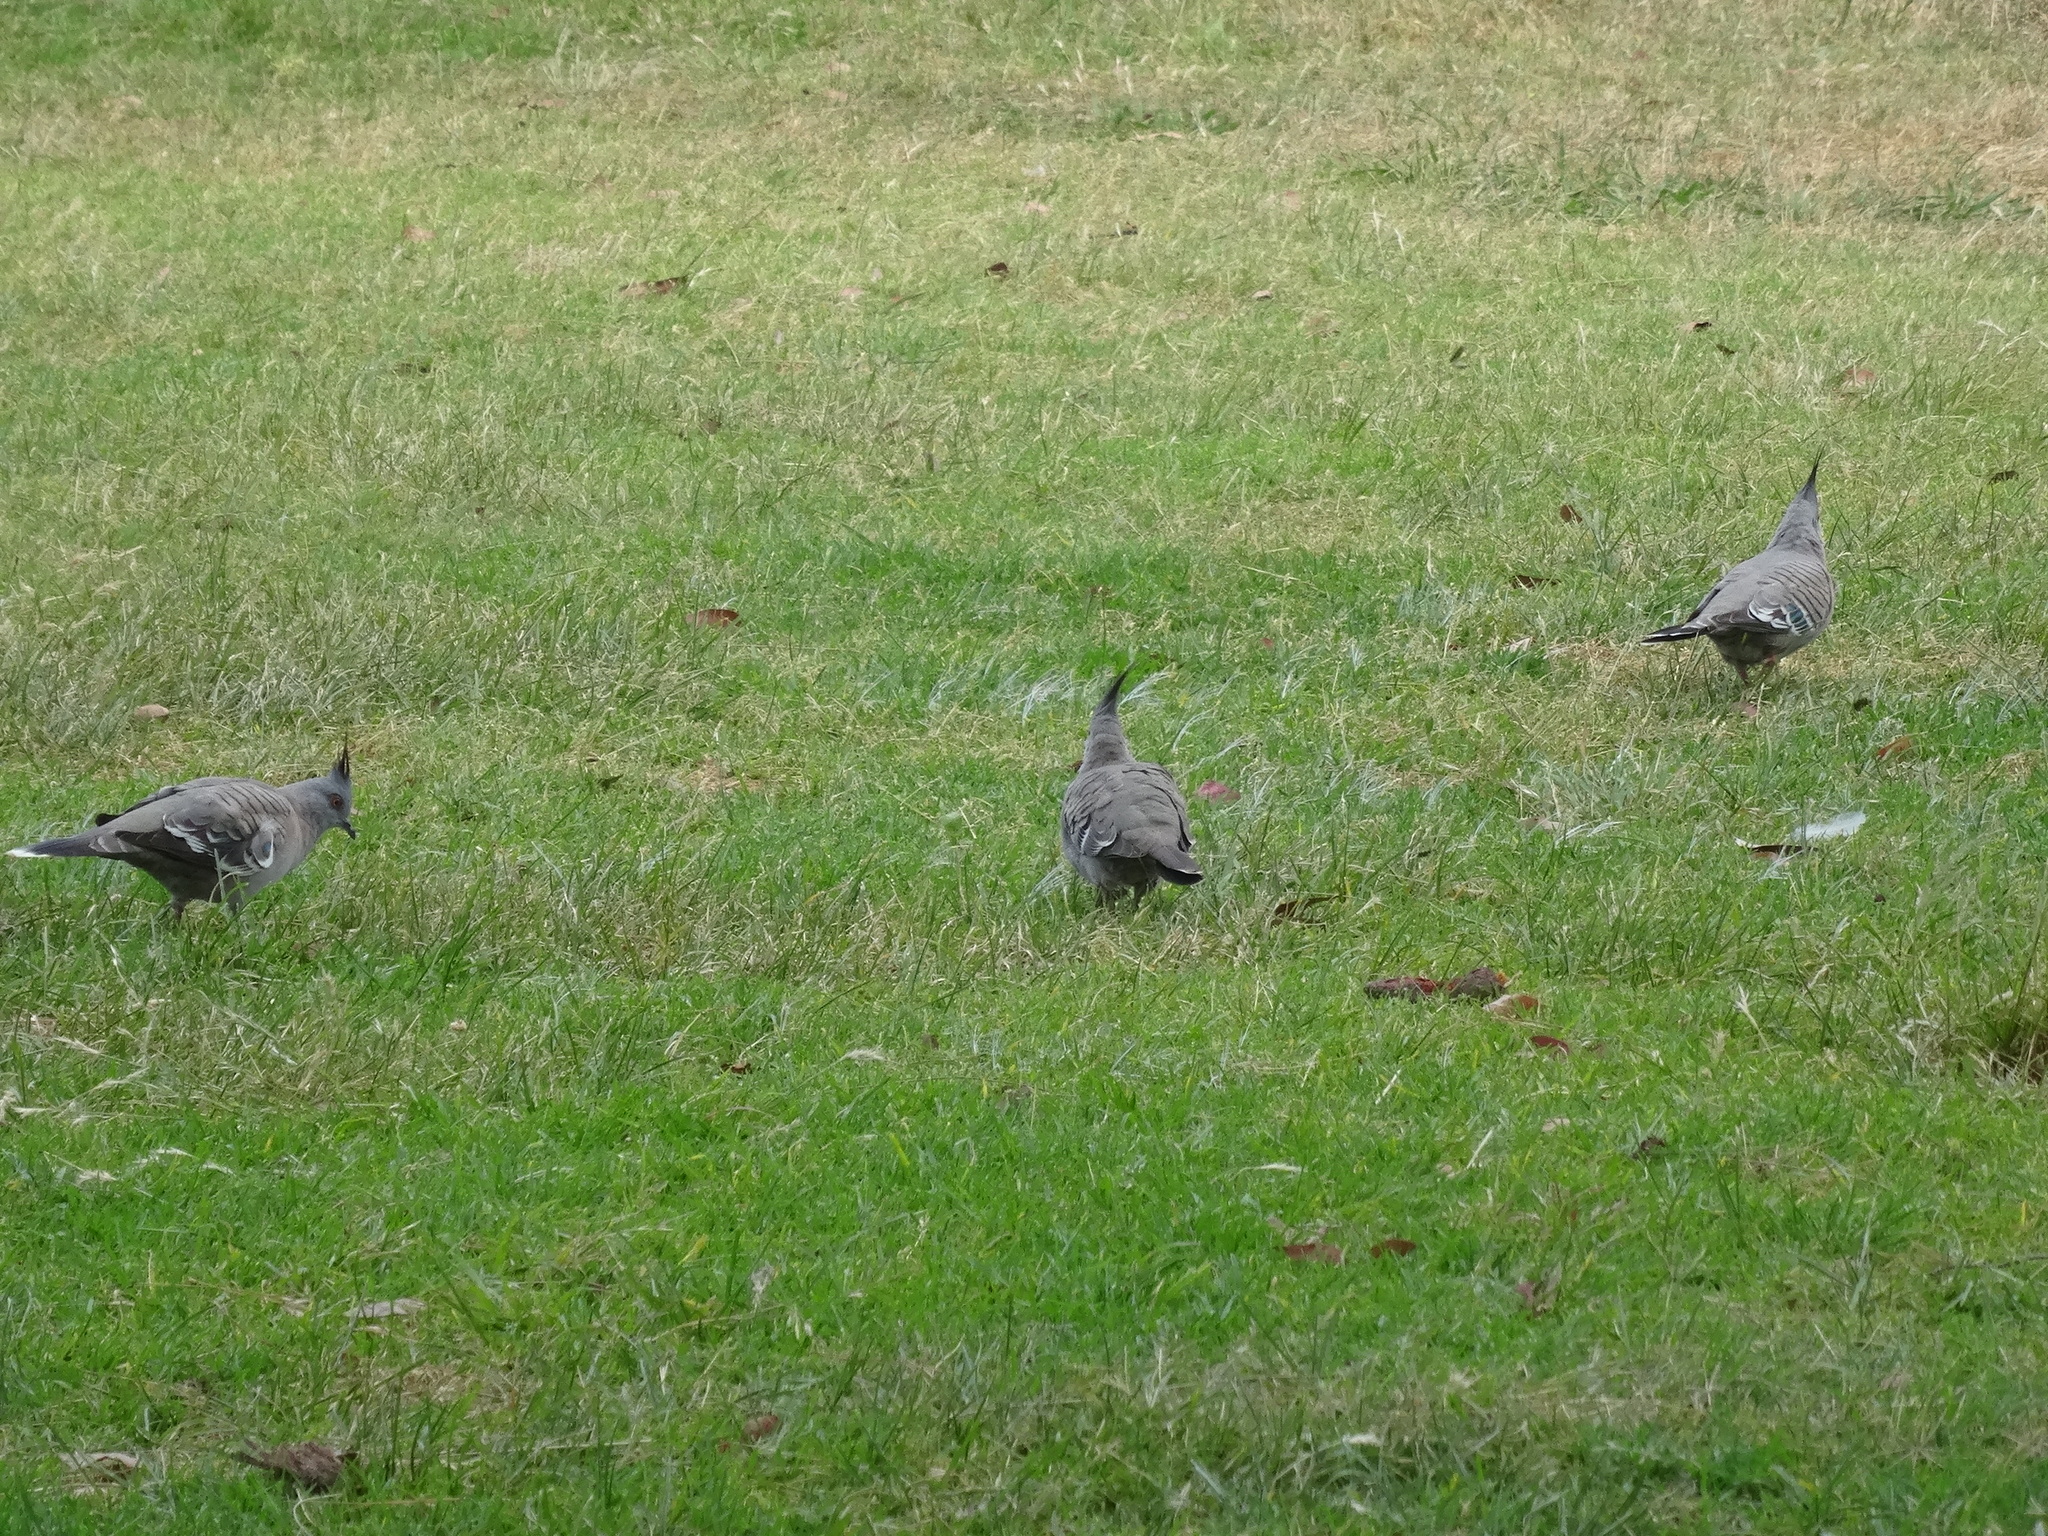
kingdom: Animalia
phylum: Chordata
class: Aves
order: Columbiformes
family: Columbidae
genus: Ocyphaps
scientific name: Ocyphaps lophotes
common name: Crested pigeon
